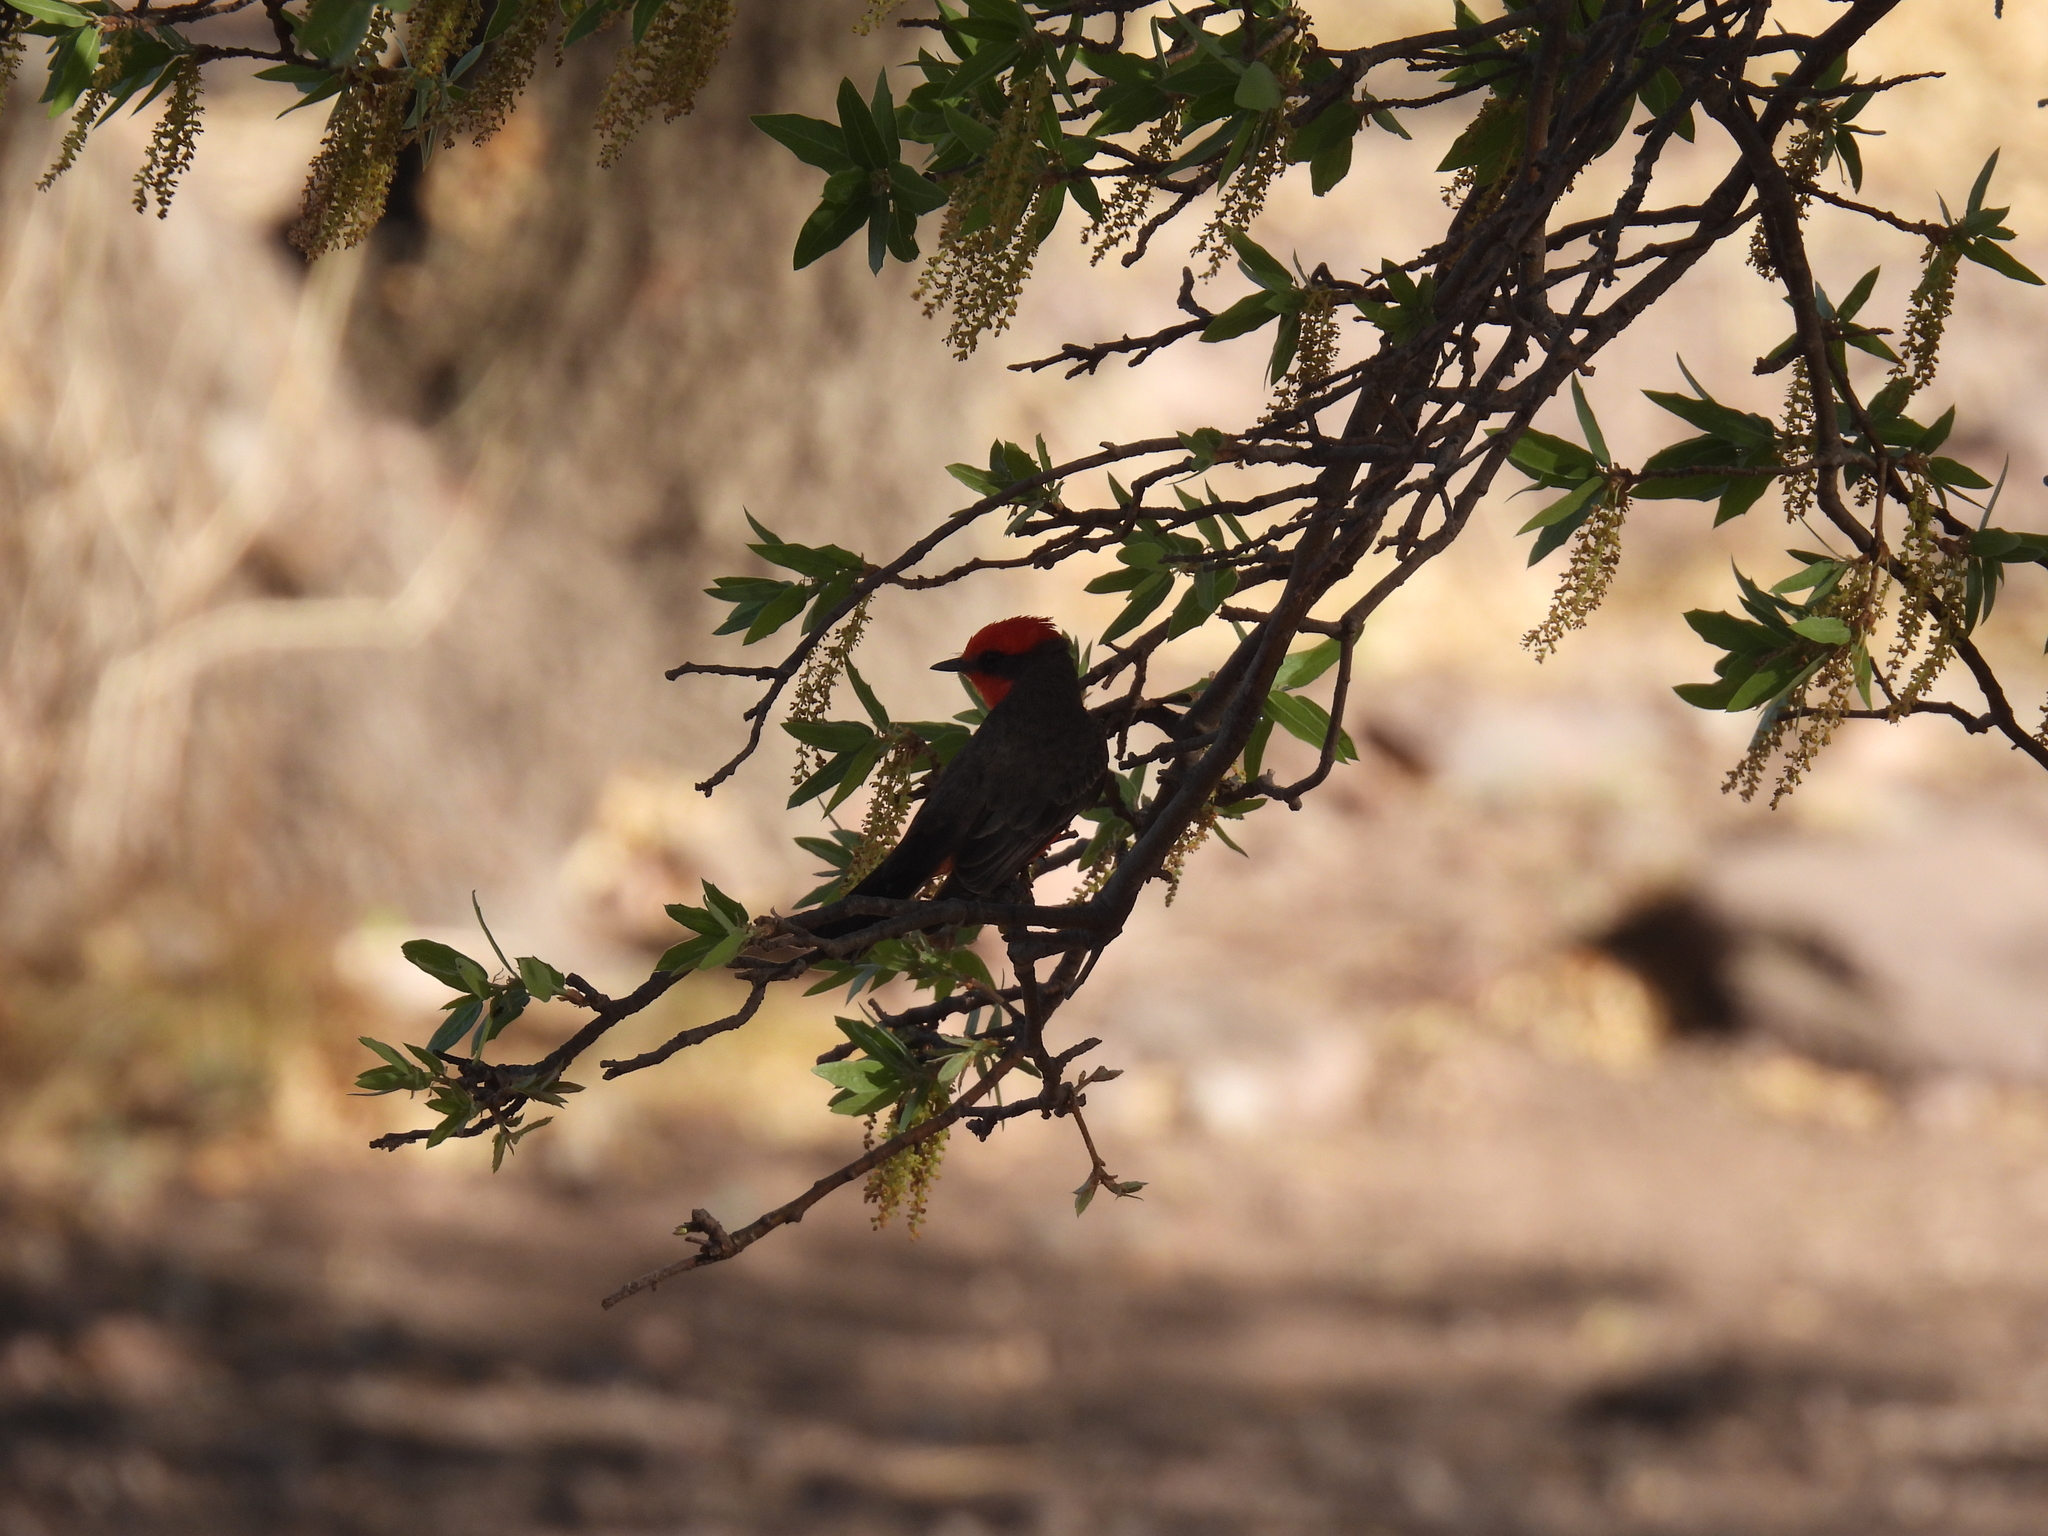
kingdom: Animalia
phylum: Chordata
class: Aves
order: Passeriformes
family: Tyrannidae
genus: Pyrocephalus
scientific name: Pyrocephalus rubinus
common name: Vermilion flycatcher
